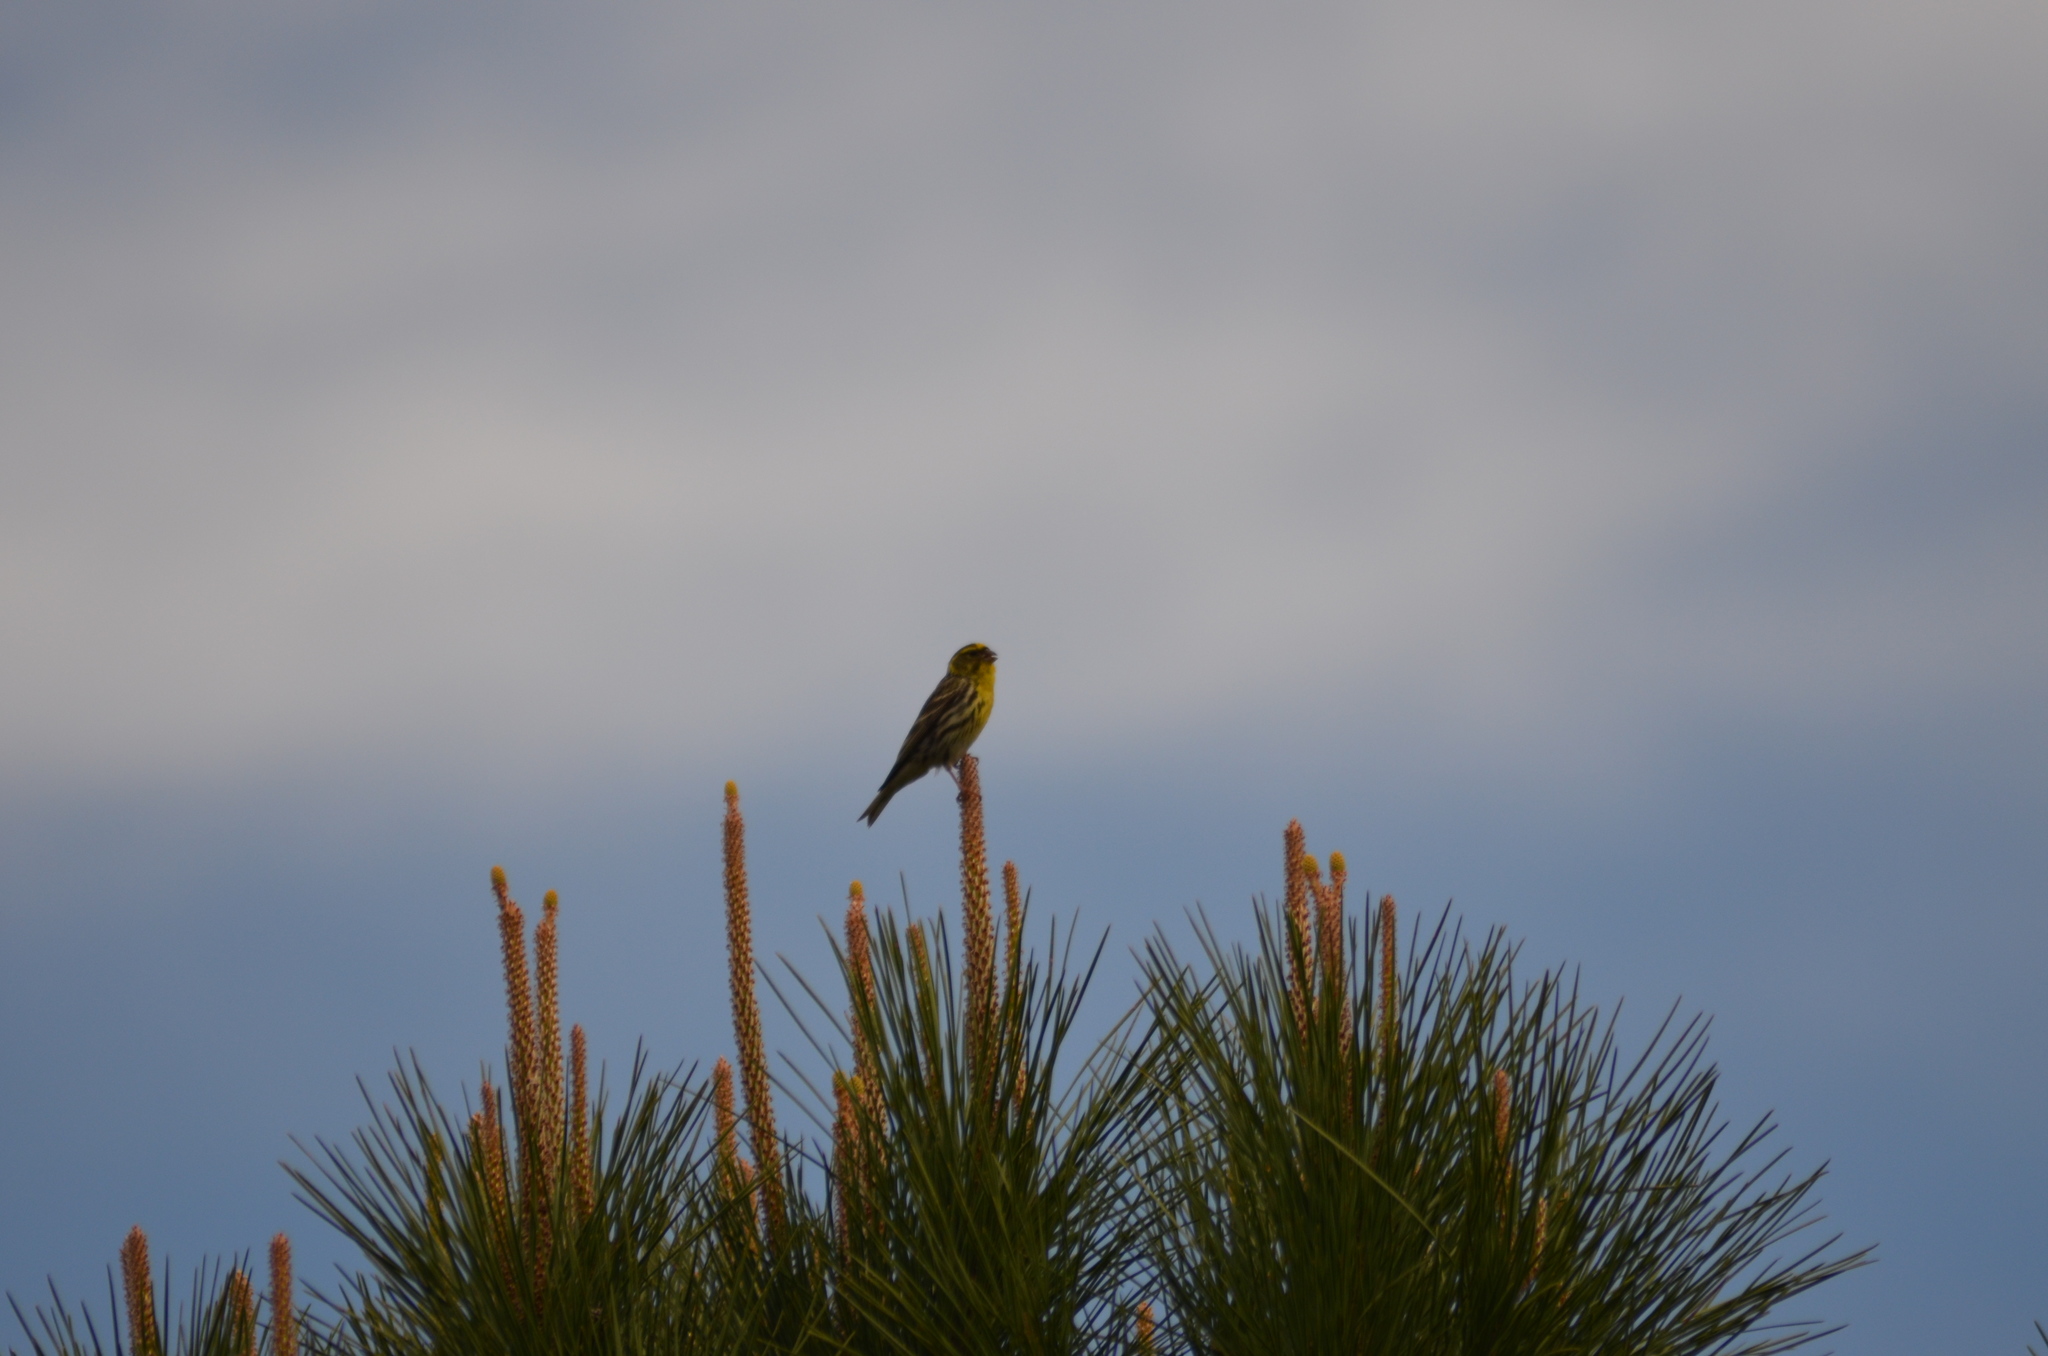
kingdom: Animalia
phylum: Chordata
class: Aves
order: Passeriformes
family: Fringillidae
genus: Serinus
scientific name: Serinus serinus
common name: European serin
